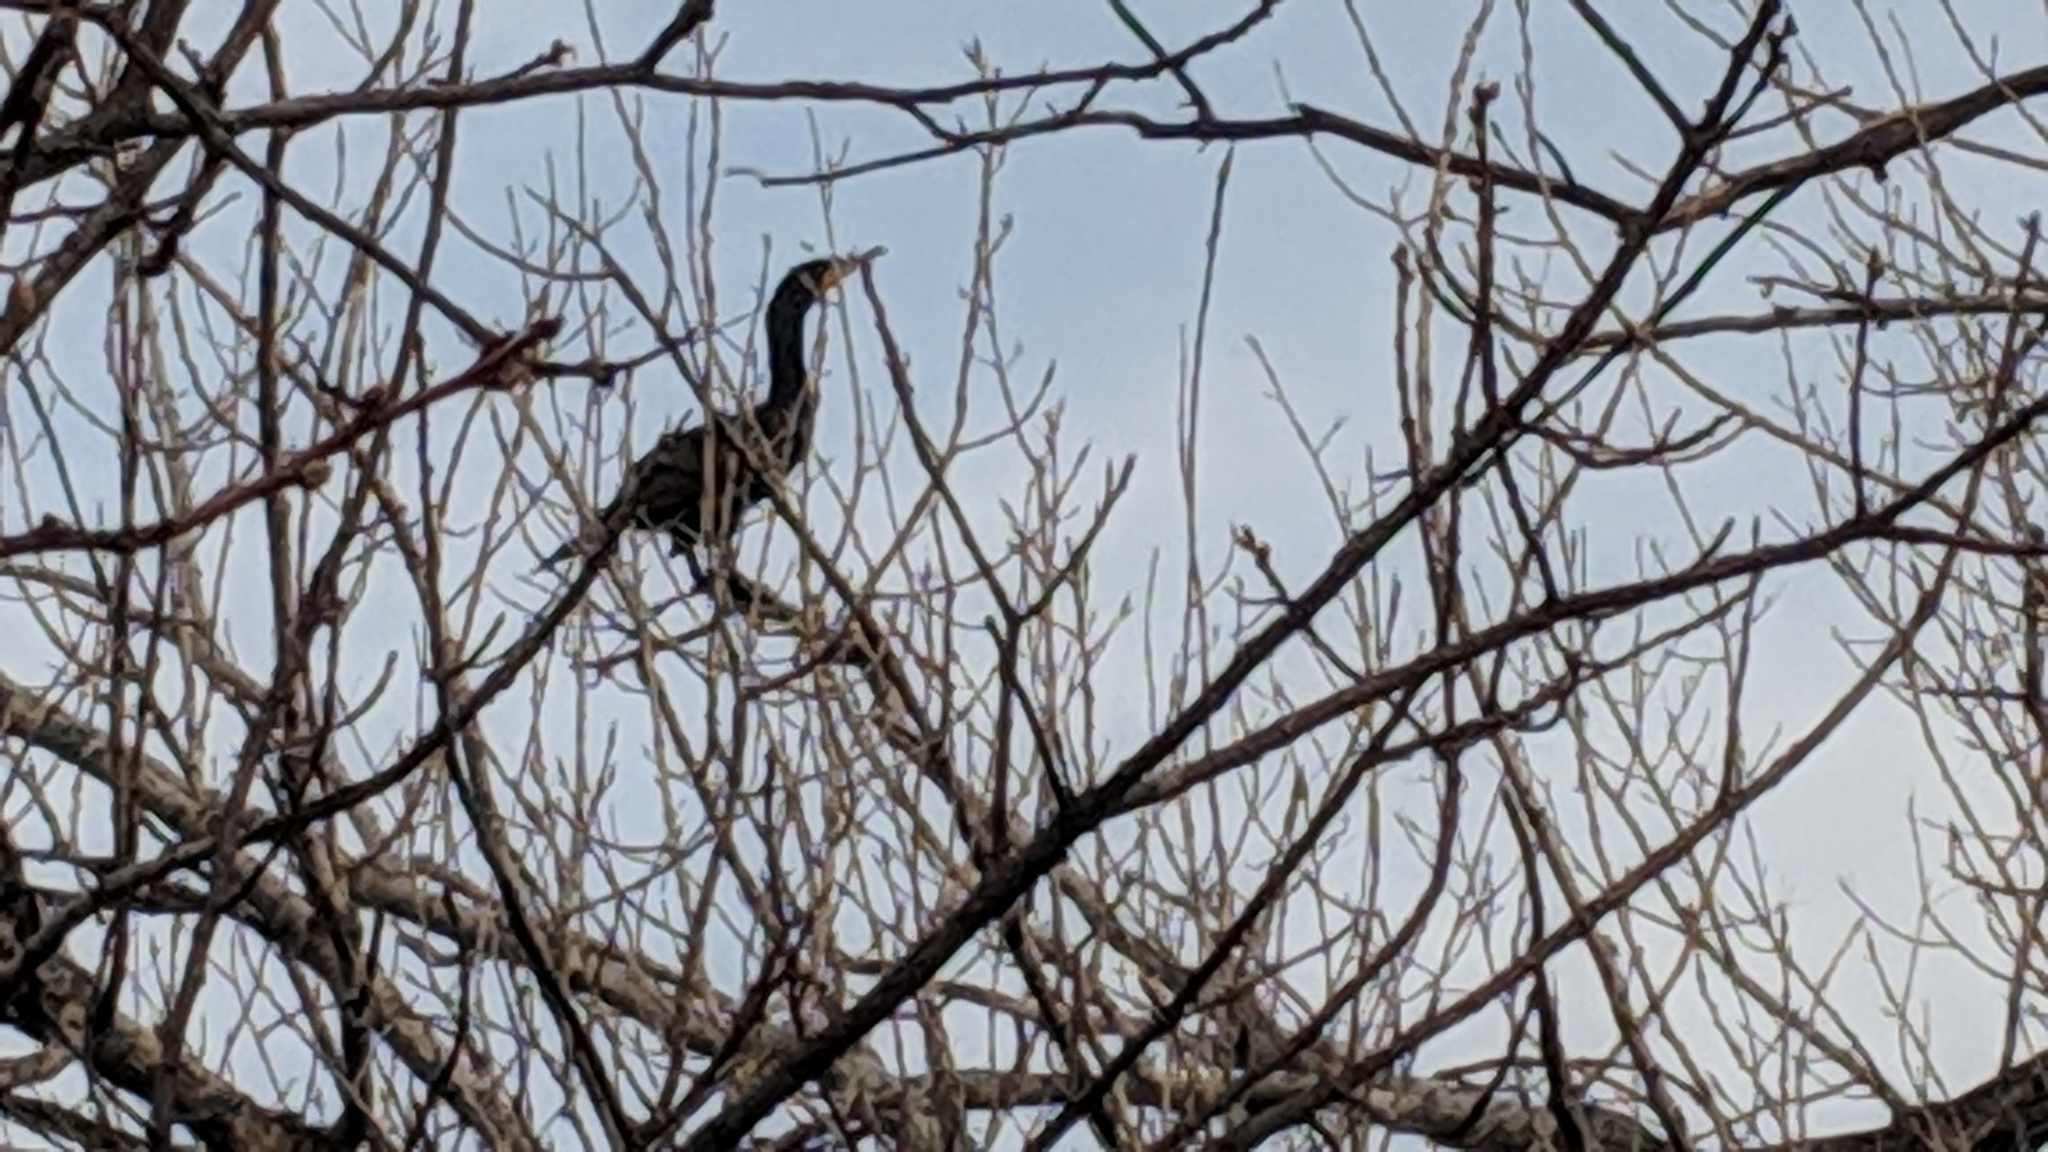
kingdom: Animalia
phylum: Chordata
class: Aves
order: Suliformes
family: Phalacrocoracidae
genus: Phalacrocorax
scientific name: Phalacrocorax auritus
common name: Double-crested cormorant
